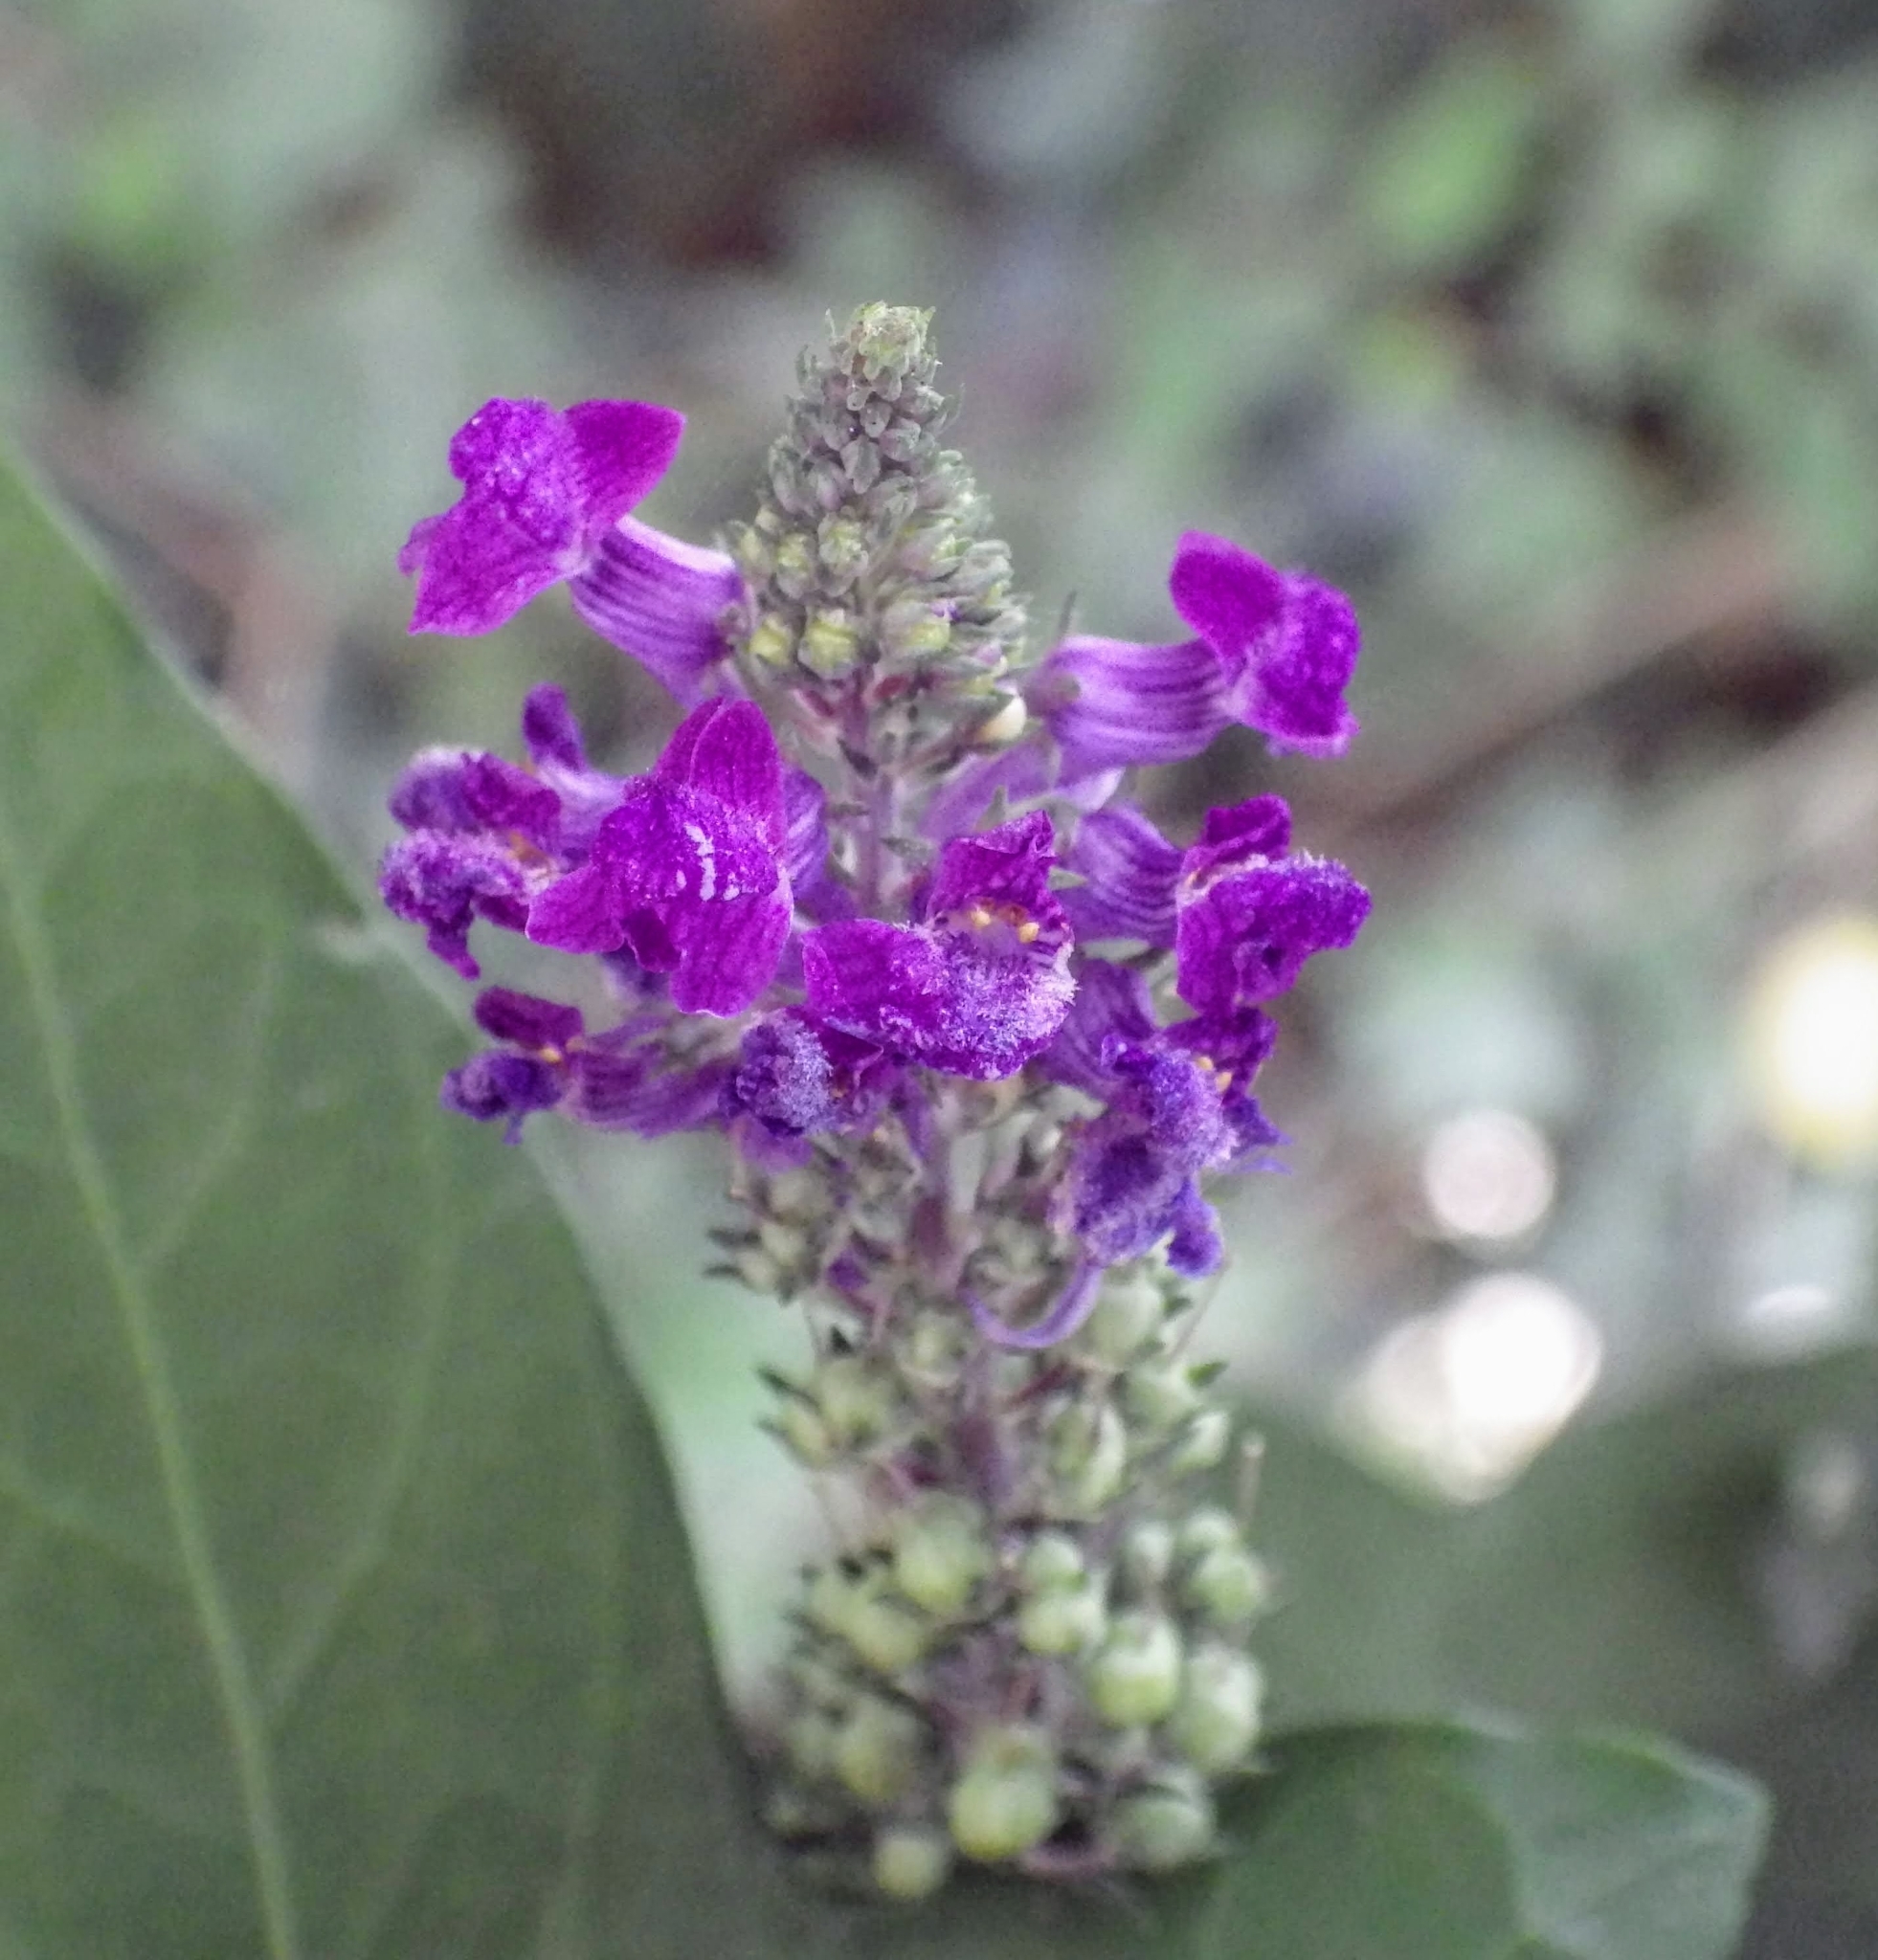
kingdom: Plantae
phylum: Tracheophyta
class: Magnoliopsida
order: Lamiales
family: Plantaginaceae
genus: Linaria
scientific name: Linaria purpurea
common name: Purple toadflax
